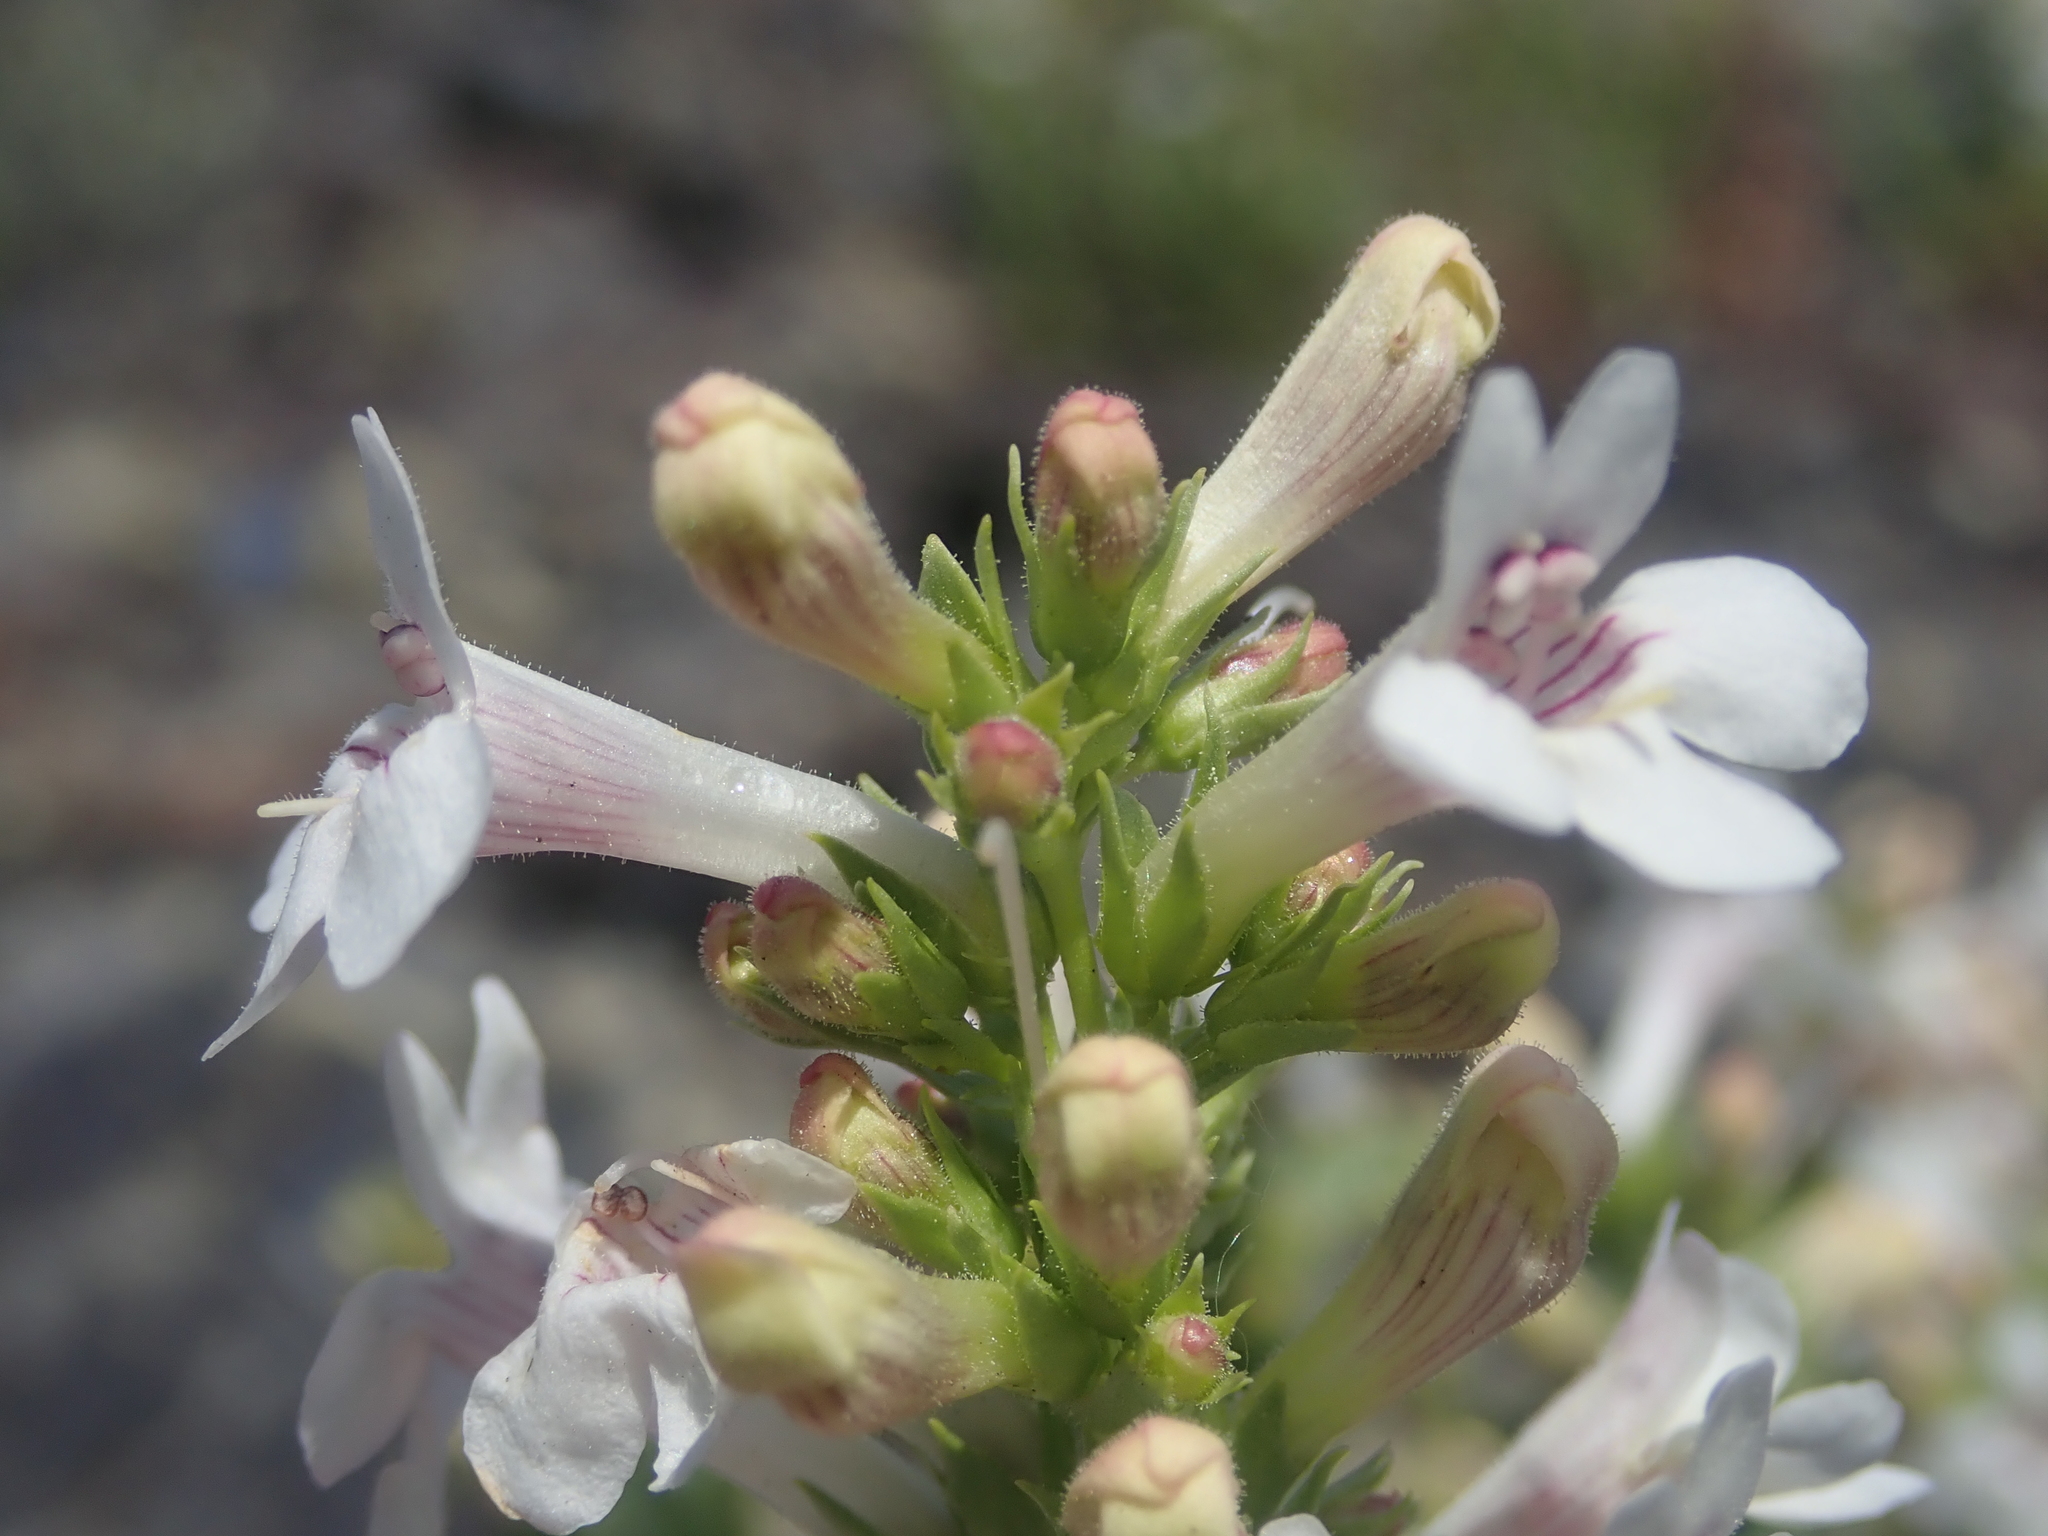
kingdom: Plantae
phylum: Tracheophyta
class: Magnoliopsida
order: Lamiales
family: Plantaginaceae
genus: Penstemon
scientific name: Penstemon deustus
